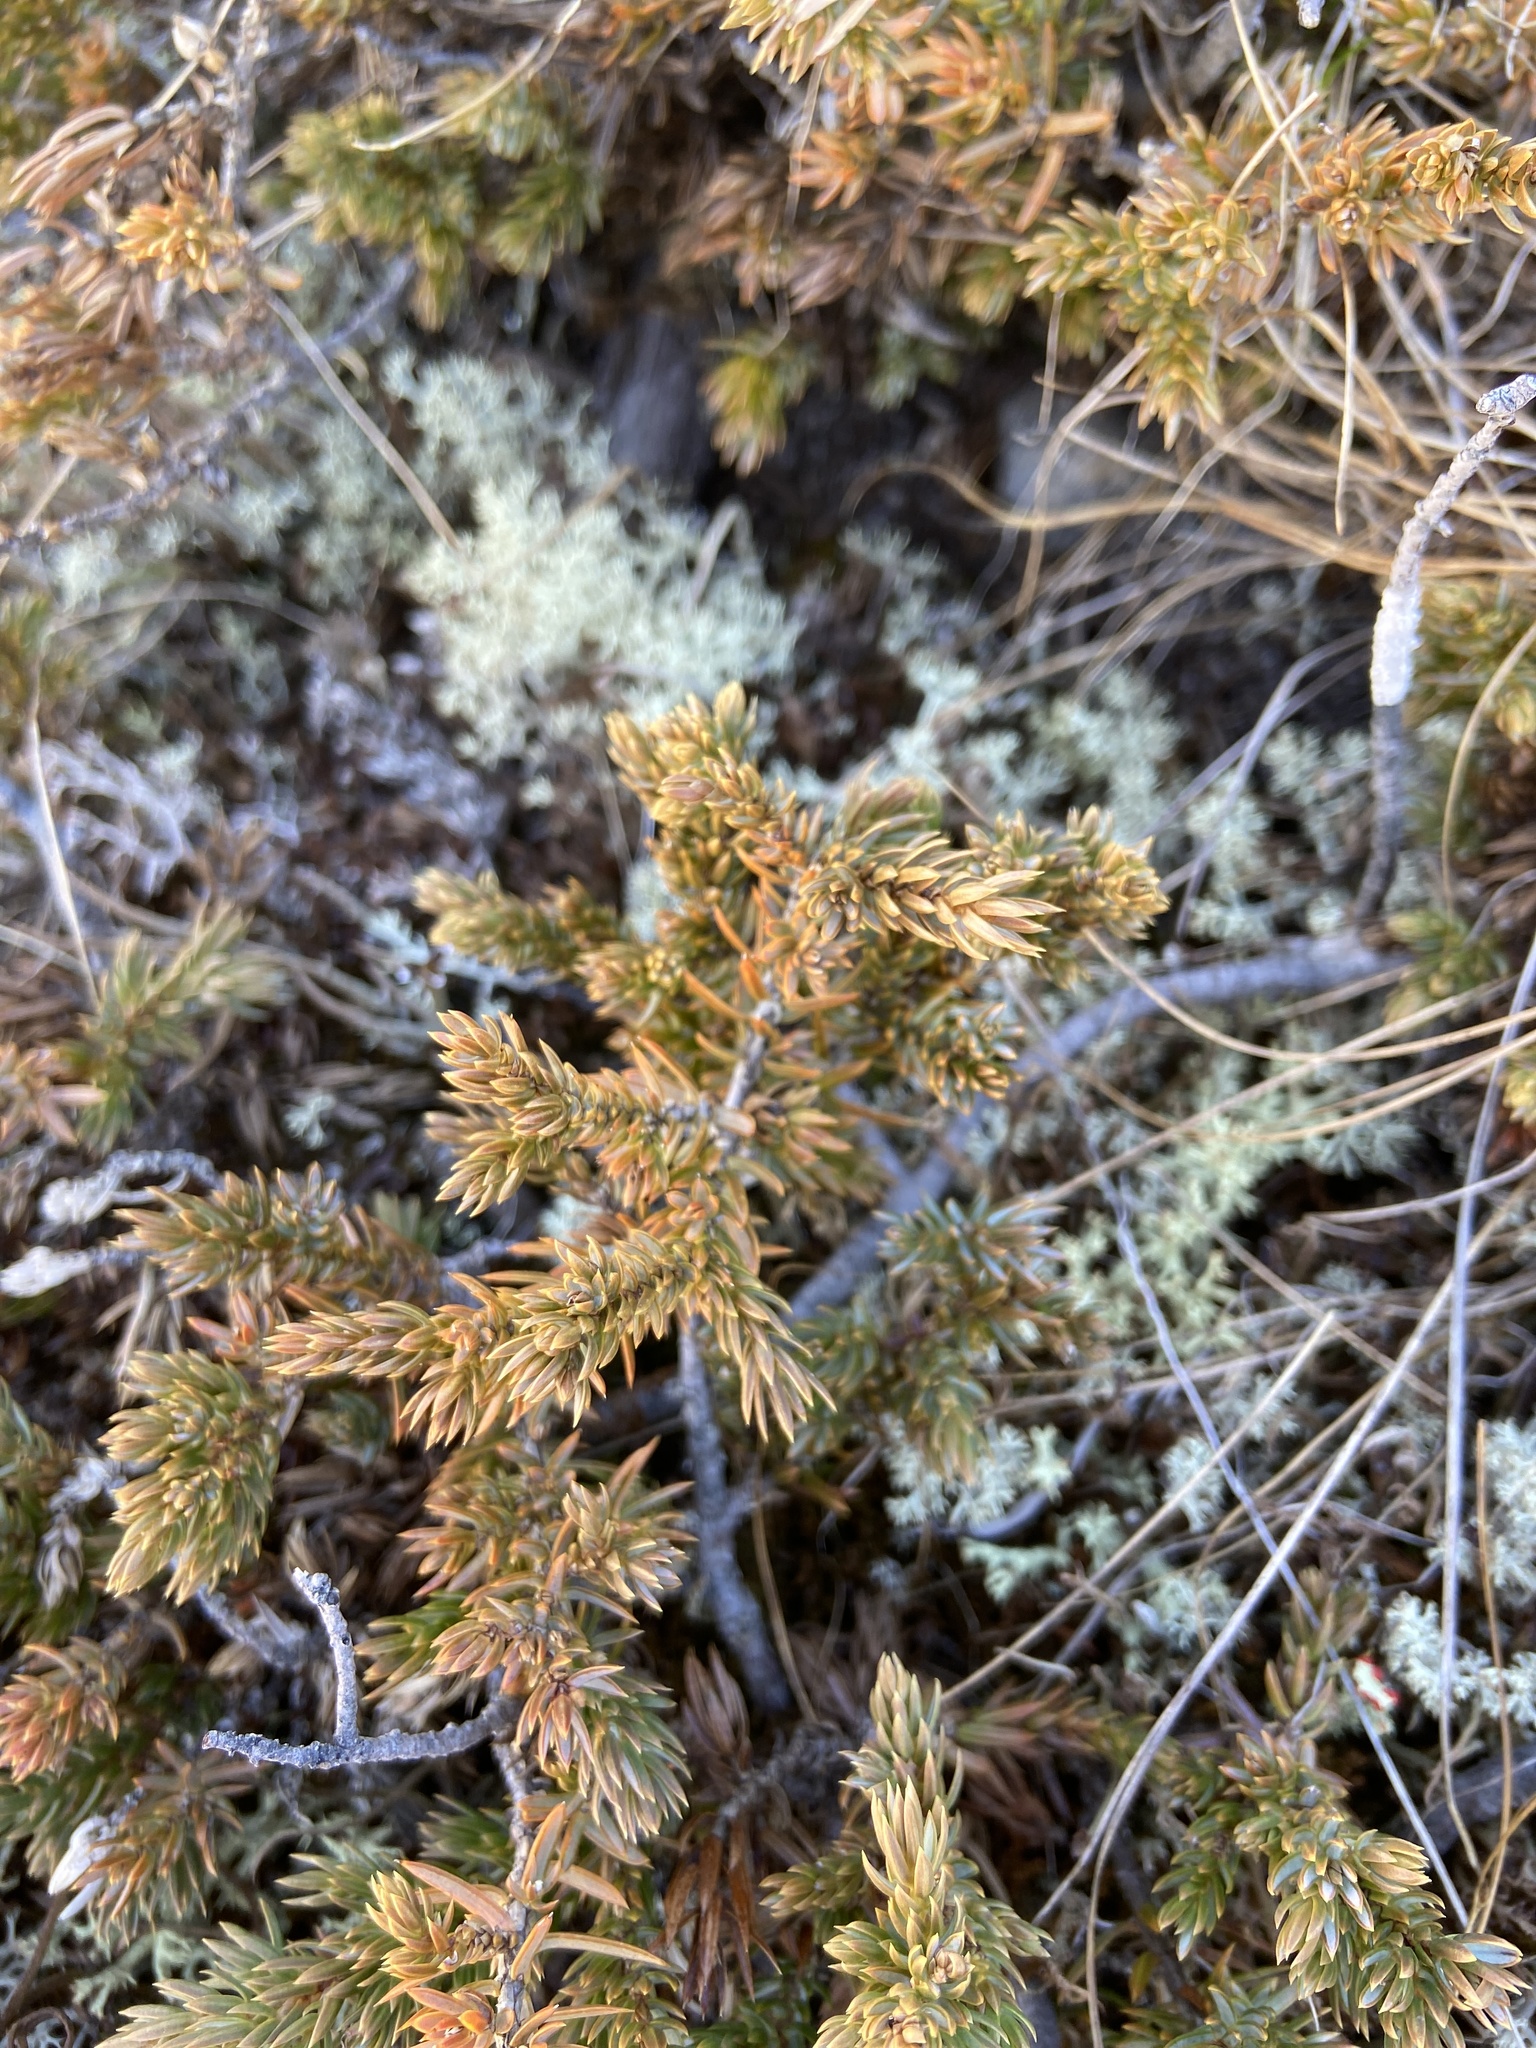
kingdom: Plantae
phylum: Tracheophyta
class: Pinopsida
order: Pinales
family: Cupressaceae
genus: Juniperus
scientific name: Juniperus communis
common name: Common juniper
